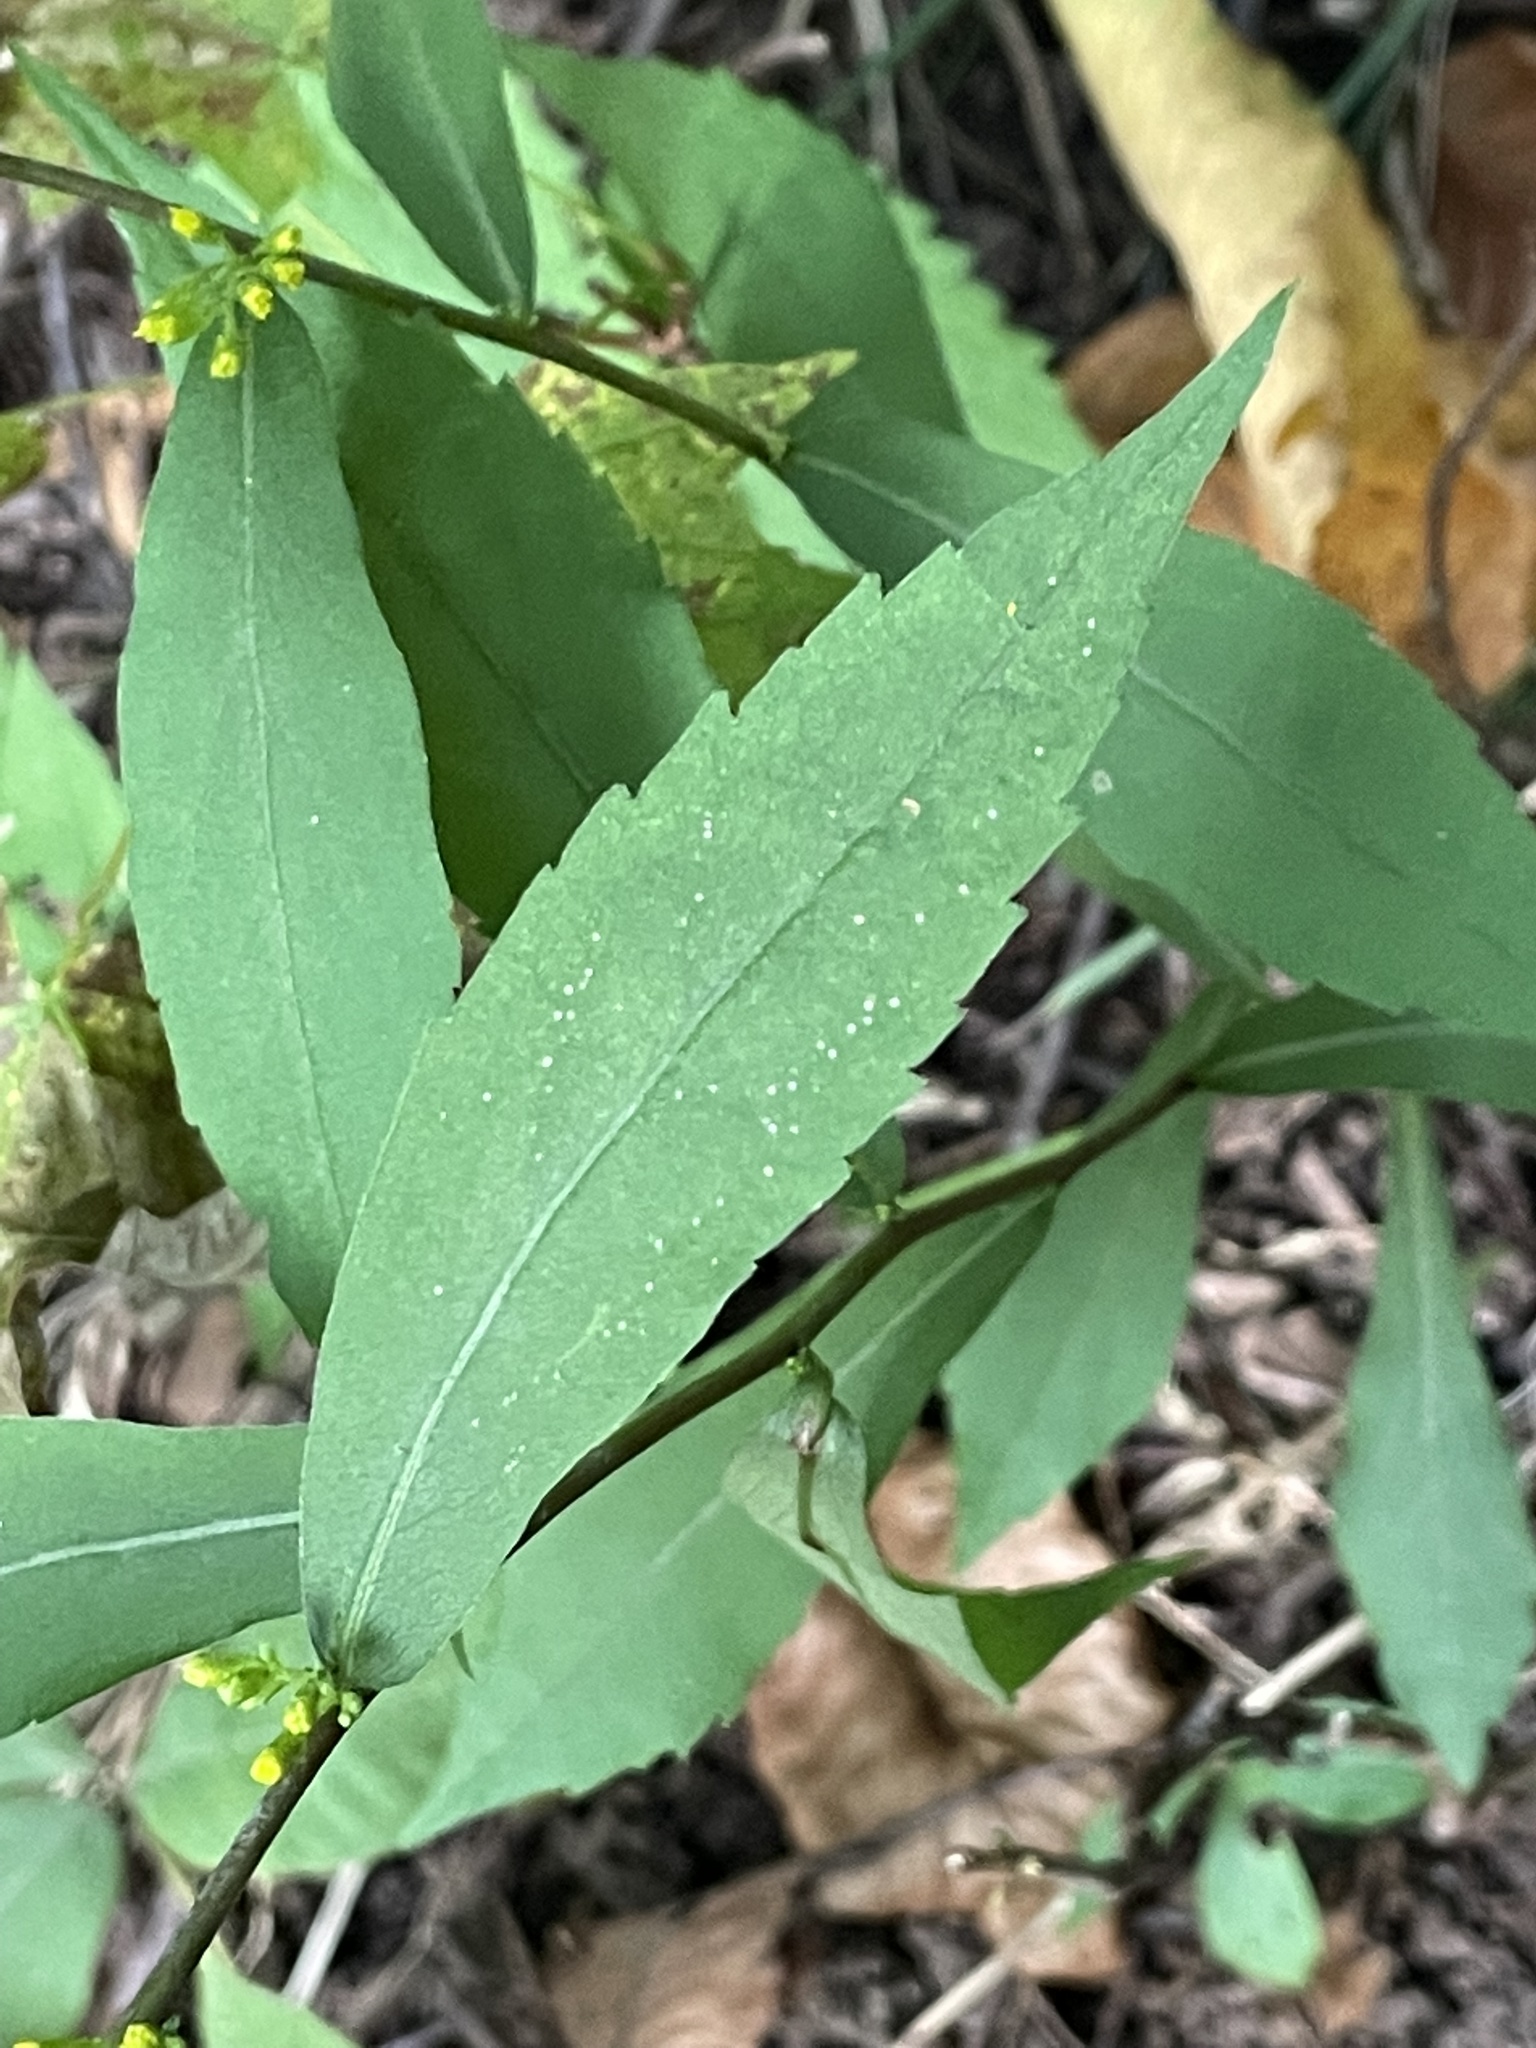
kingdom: Plantae
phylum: Tracheophyta
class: Magnoliopsida
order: Asterales
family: Asteraceae
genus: Solidago
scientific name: Solidago caesia
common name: Woodland goldenrod
